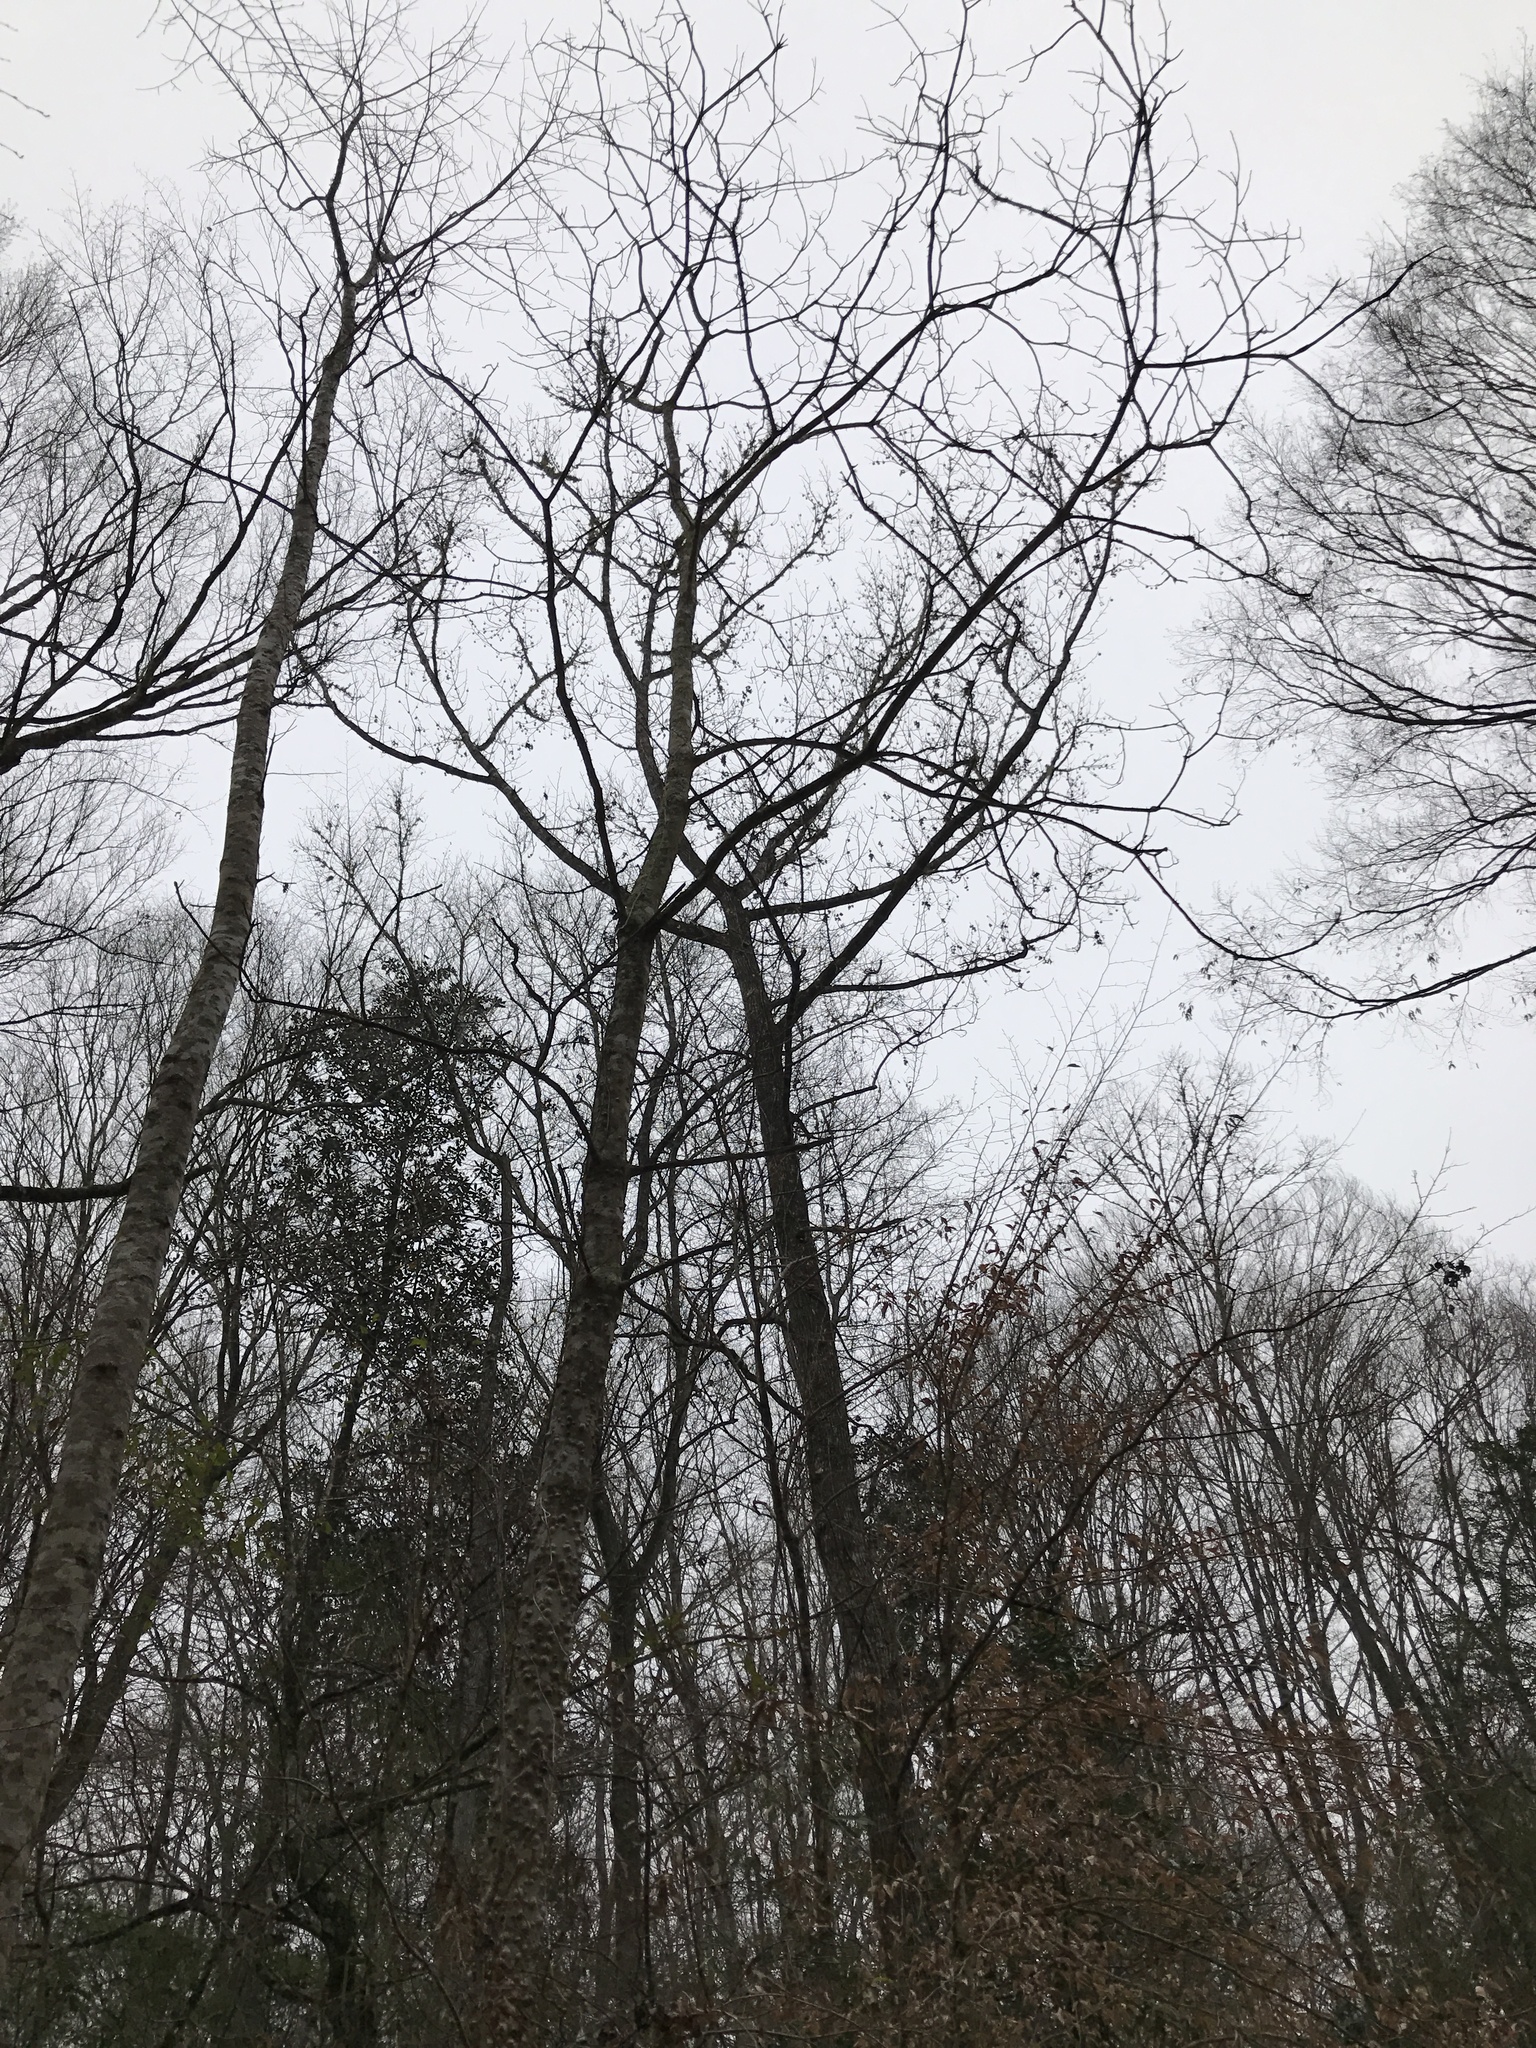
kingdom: Plantae
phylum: Tracheophyta
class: Magnoliopsida
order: Sapindales
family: Rutaceae
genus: Zanthoxylum
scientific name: Zanthoxylum clava-herculis
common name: Hercules'-club
